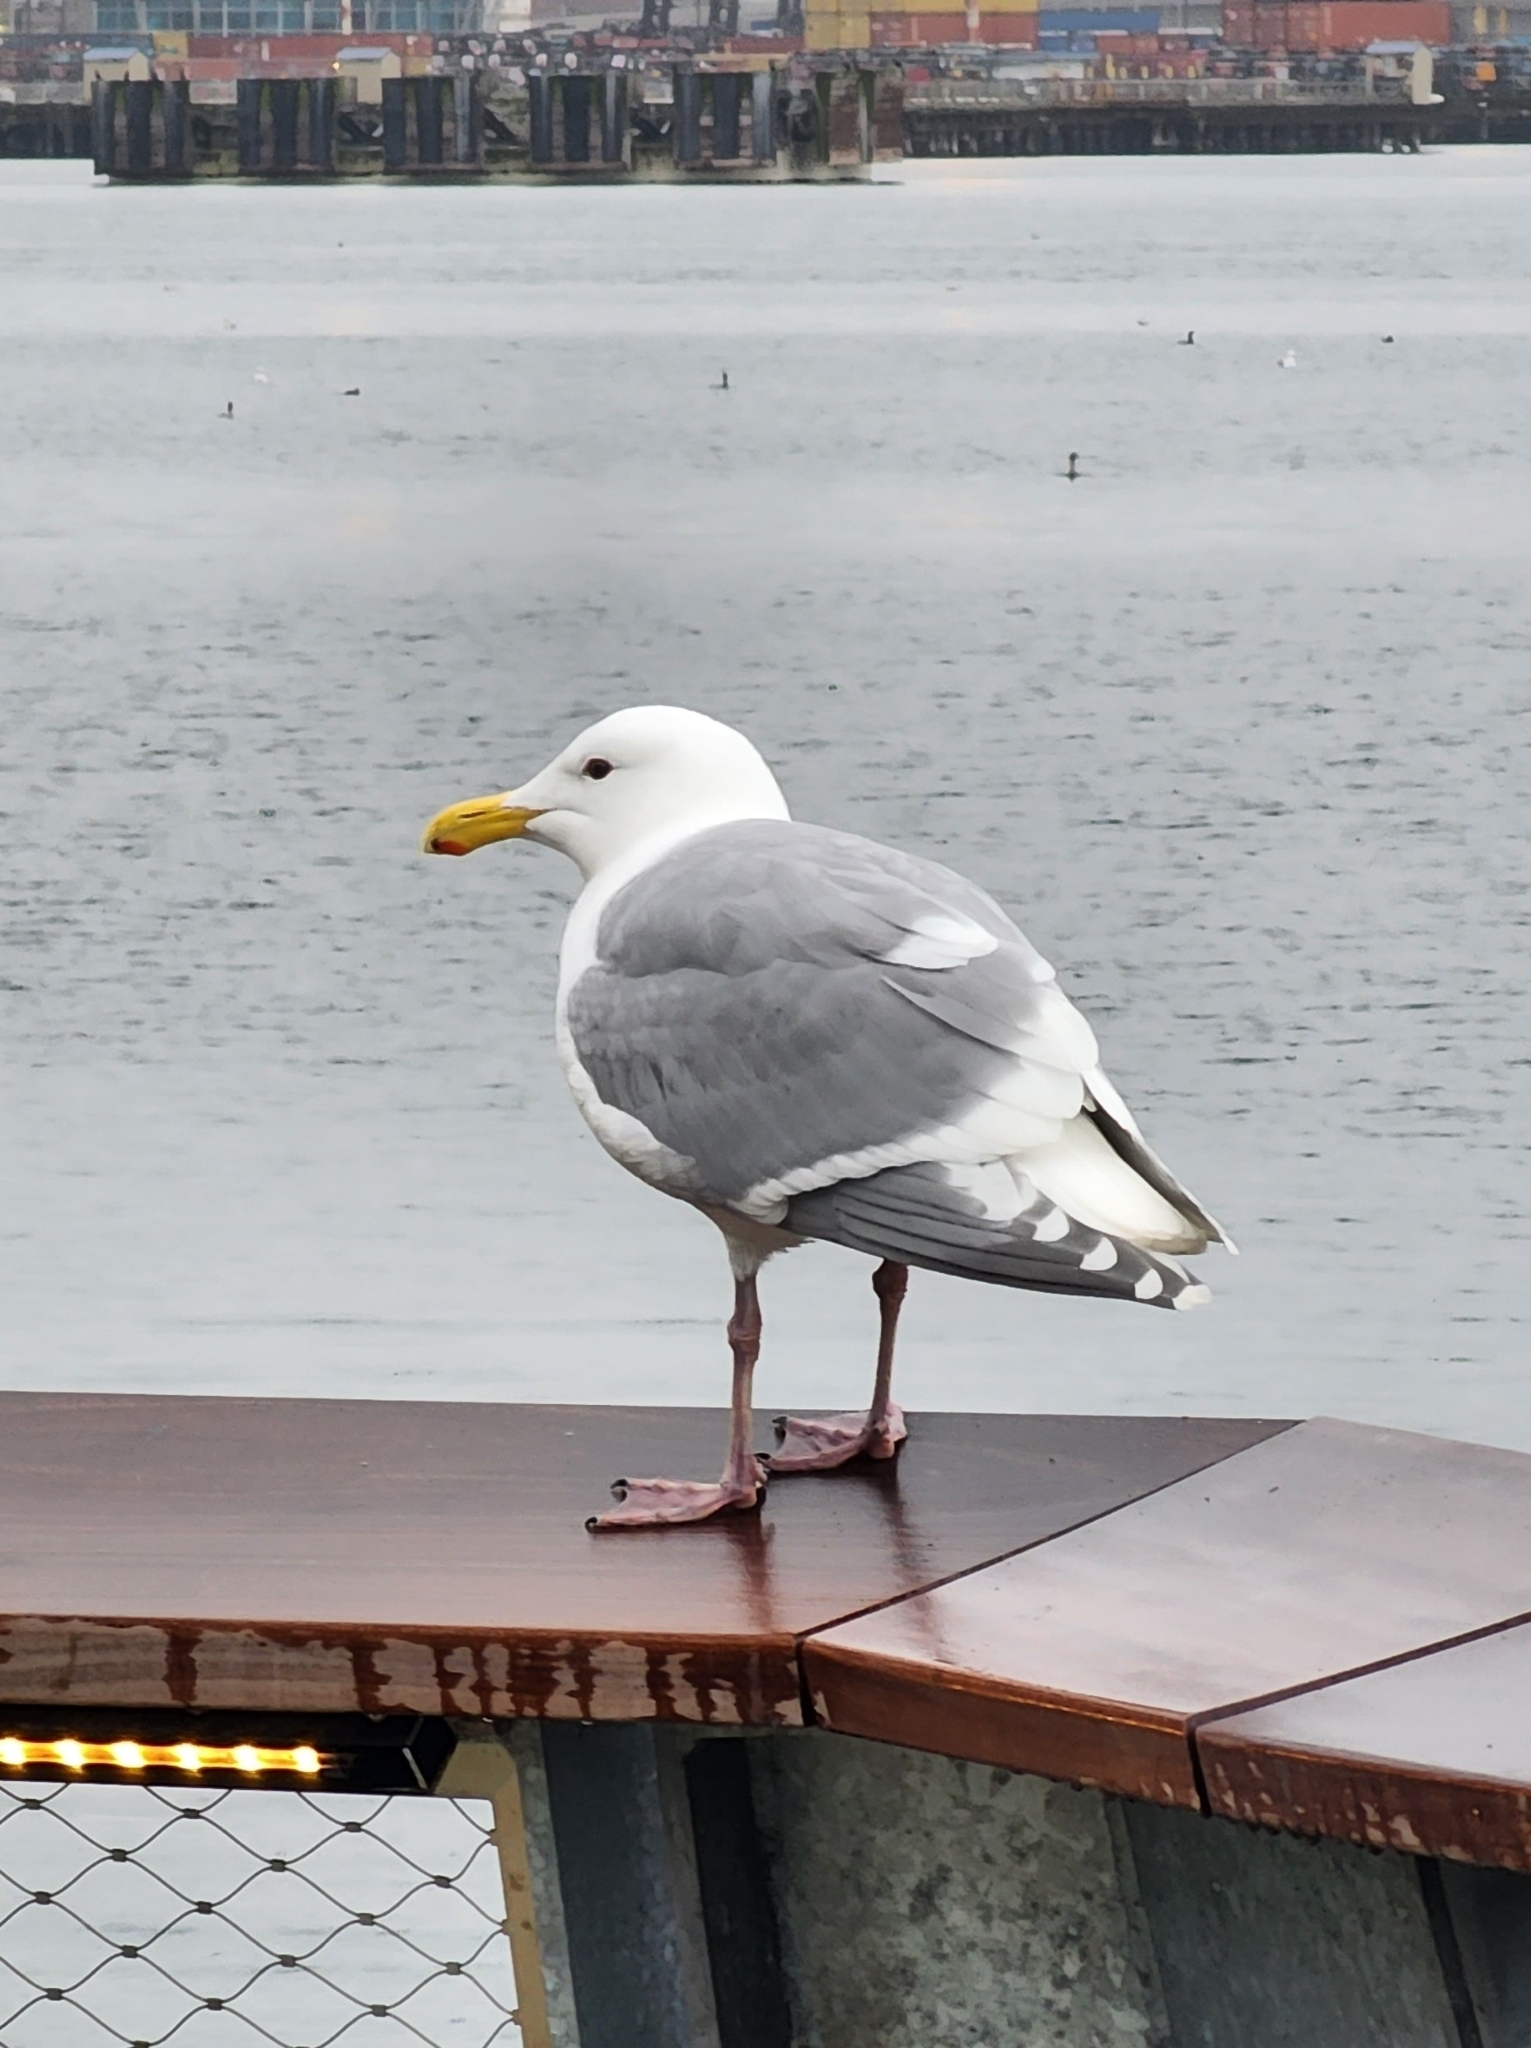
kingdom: Animalia
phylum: Chordata
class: Aves
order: Charadriiformes
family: Laridae
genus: Larus
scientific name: Larus glaucescens
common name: Glaucous-winged gull
